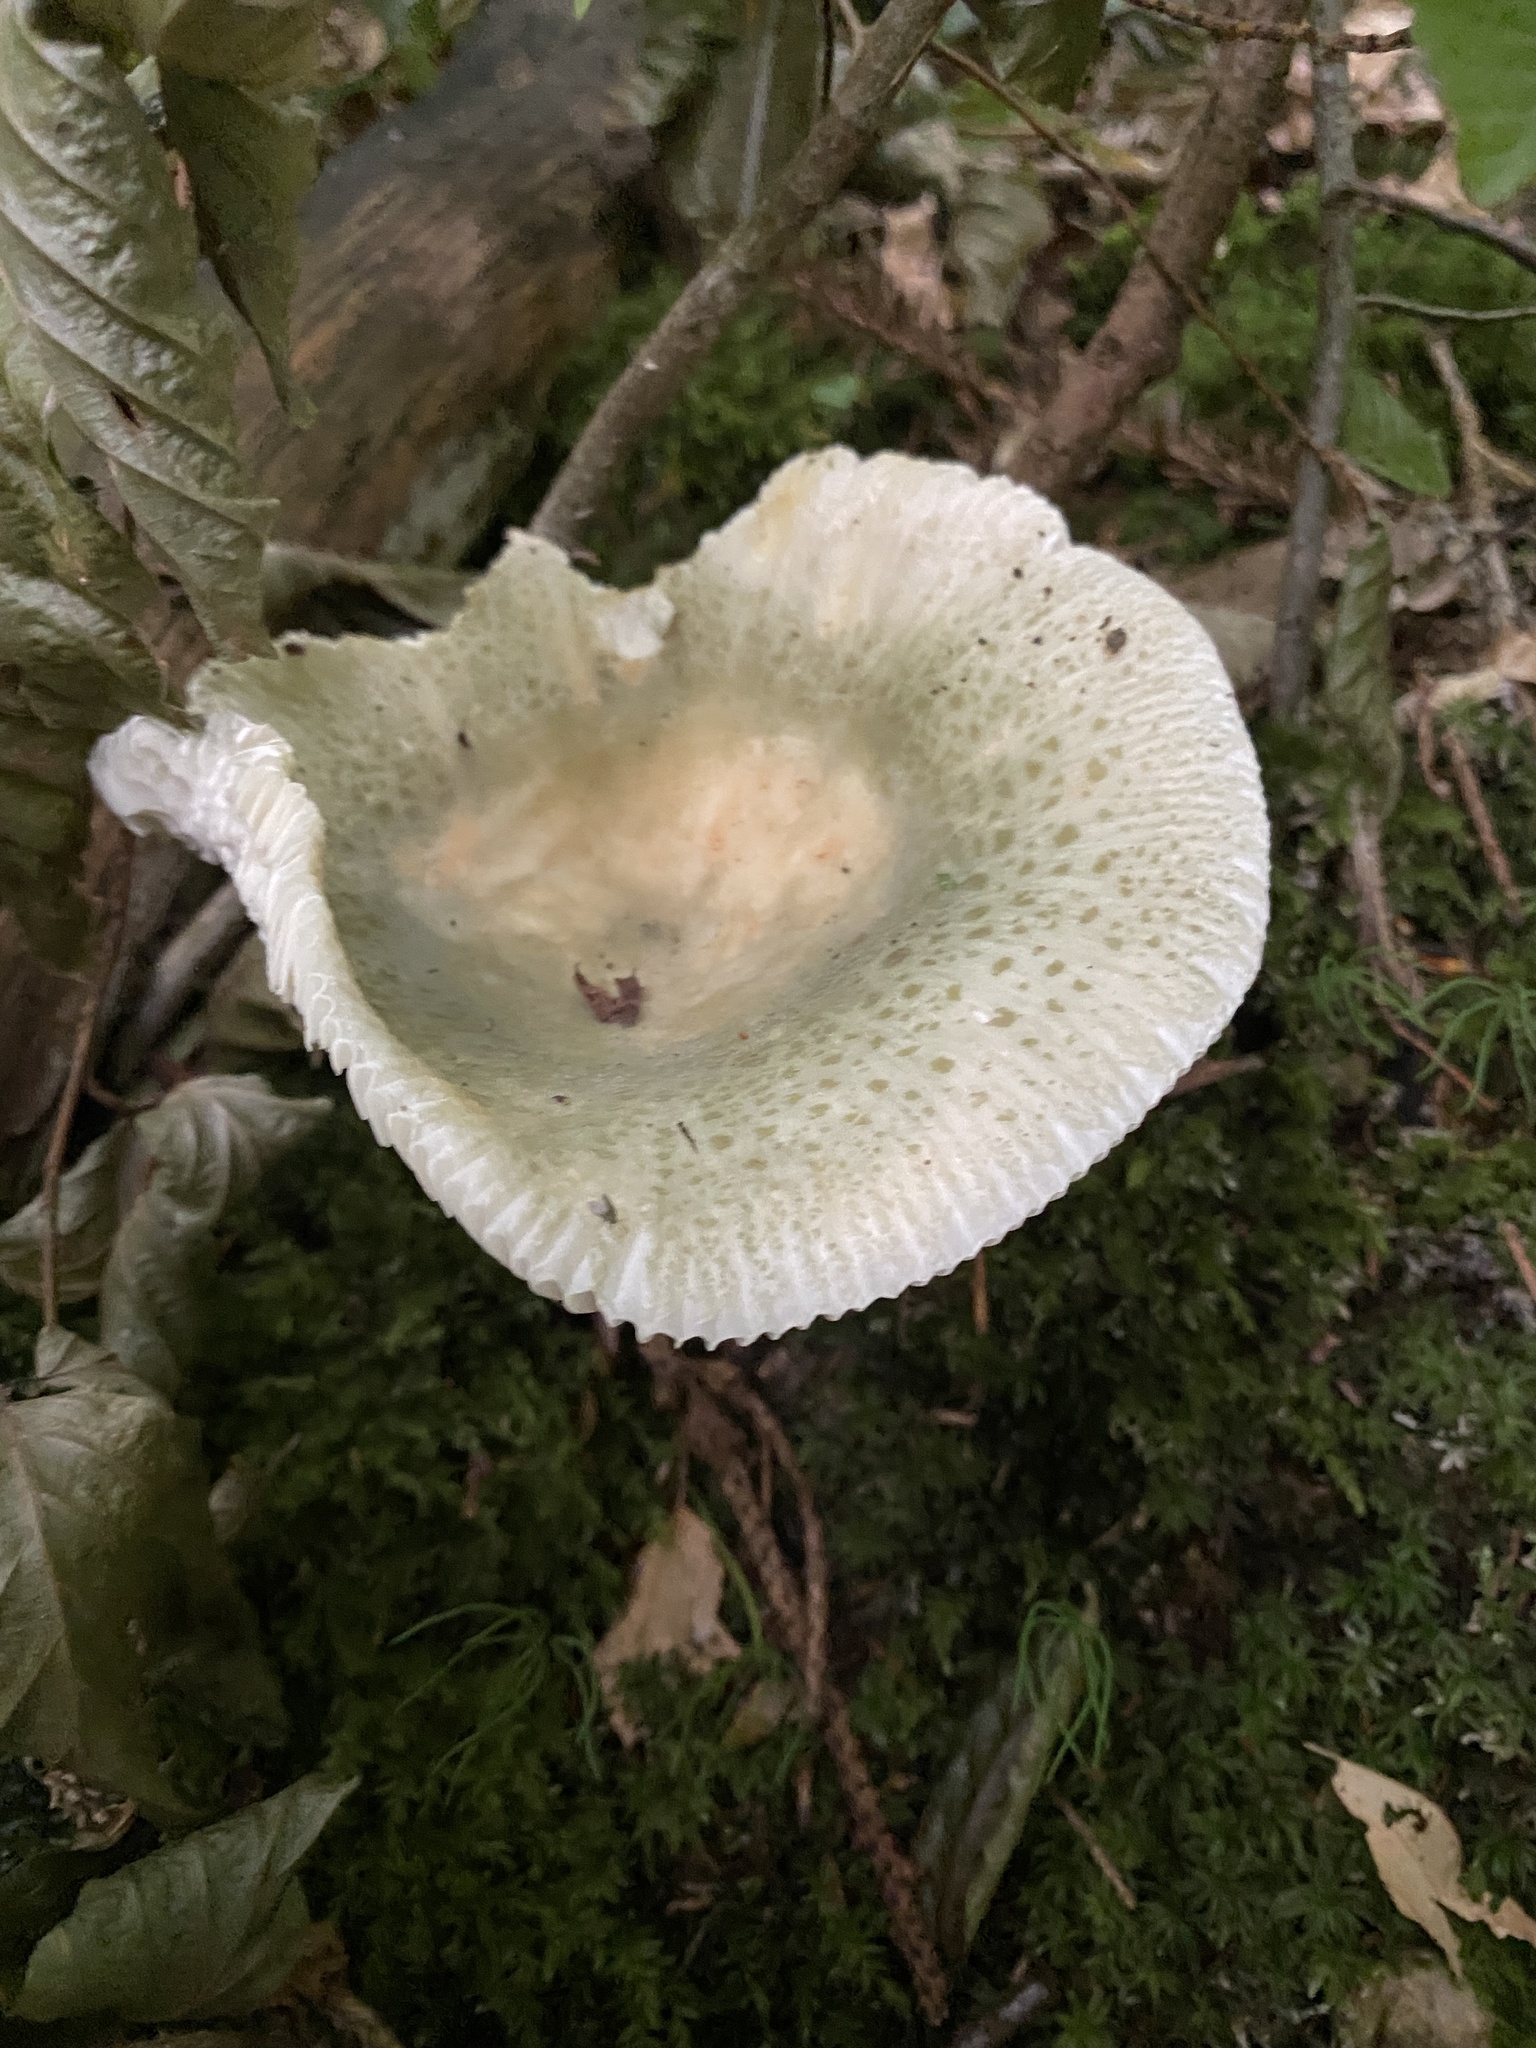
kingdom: Fungi
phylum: Basidiomycota
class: Agaricomycetes
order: Russulales
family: Russulaceae
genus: Russula
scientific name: Russula virescens
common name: Greencracked brittlegill
